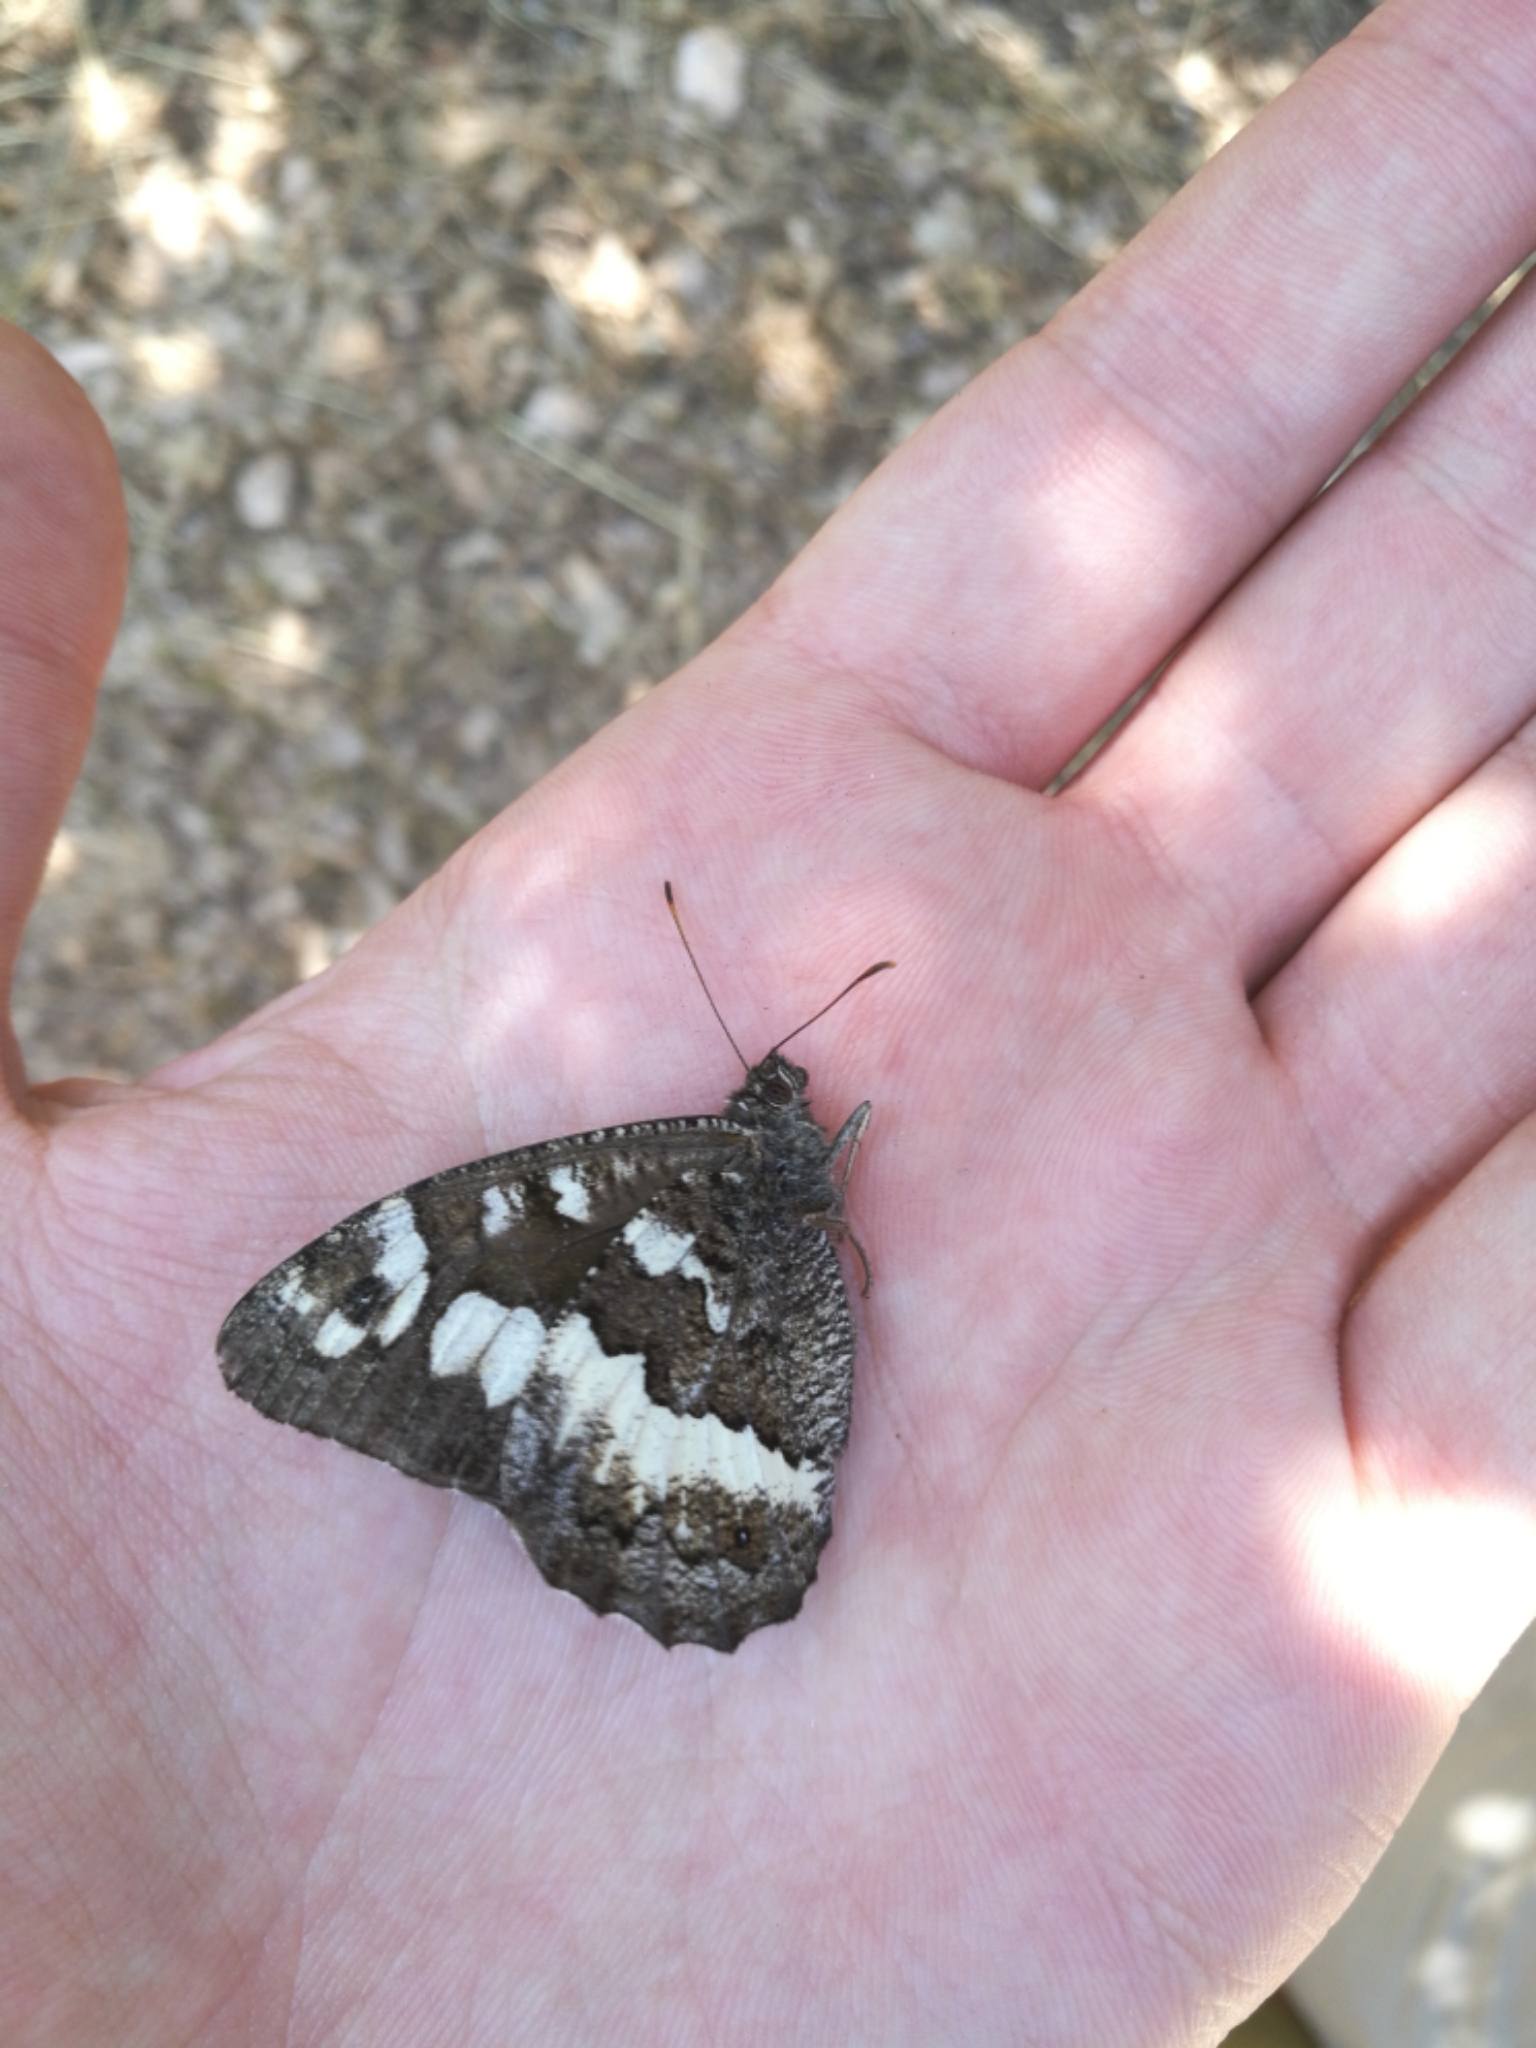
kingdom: Animalia
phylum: Arthropoda
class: Insecta
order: Lepidoptera
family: Lycaenidae
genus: Loweia
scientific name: Loweia tityrus
